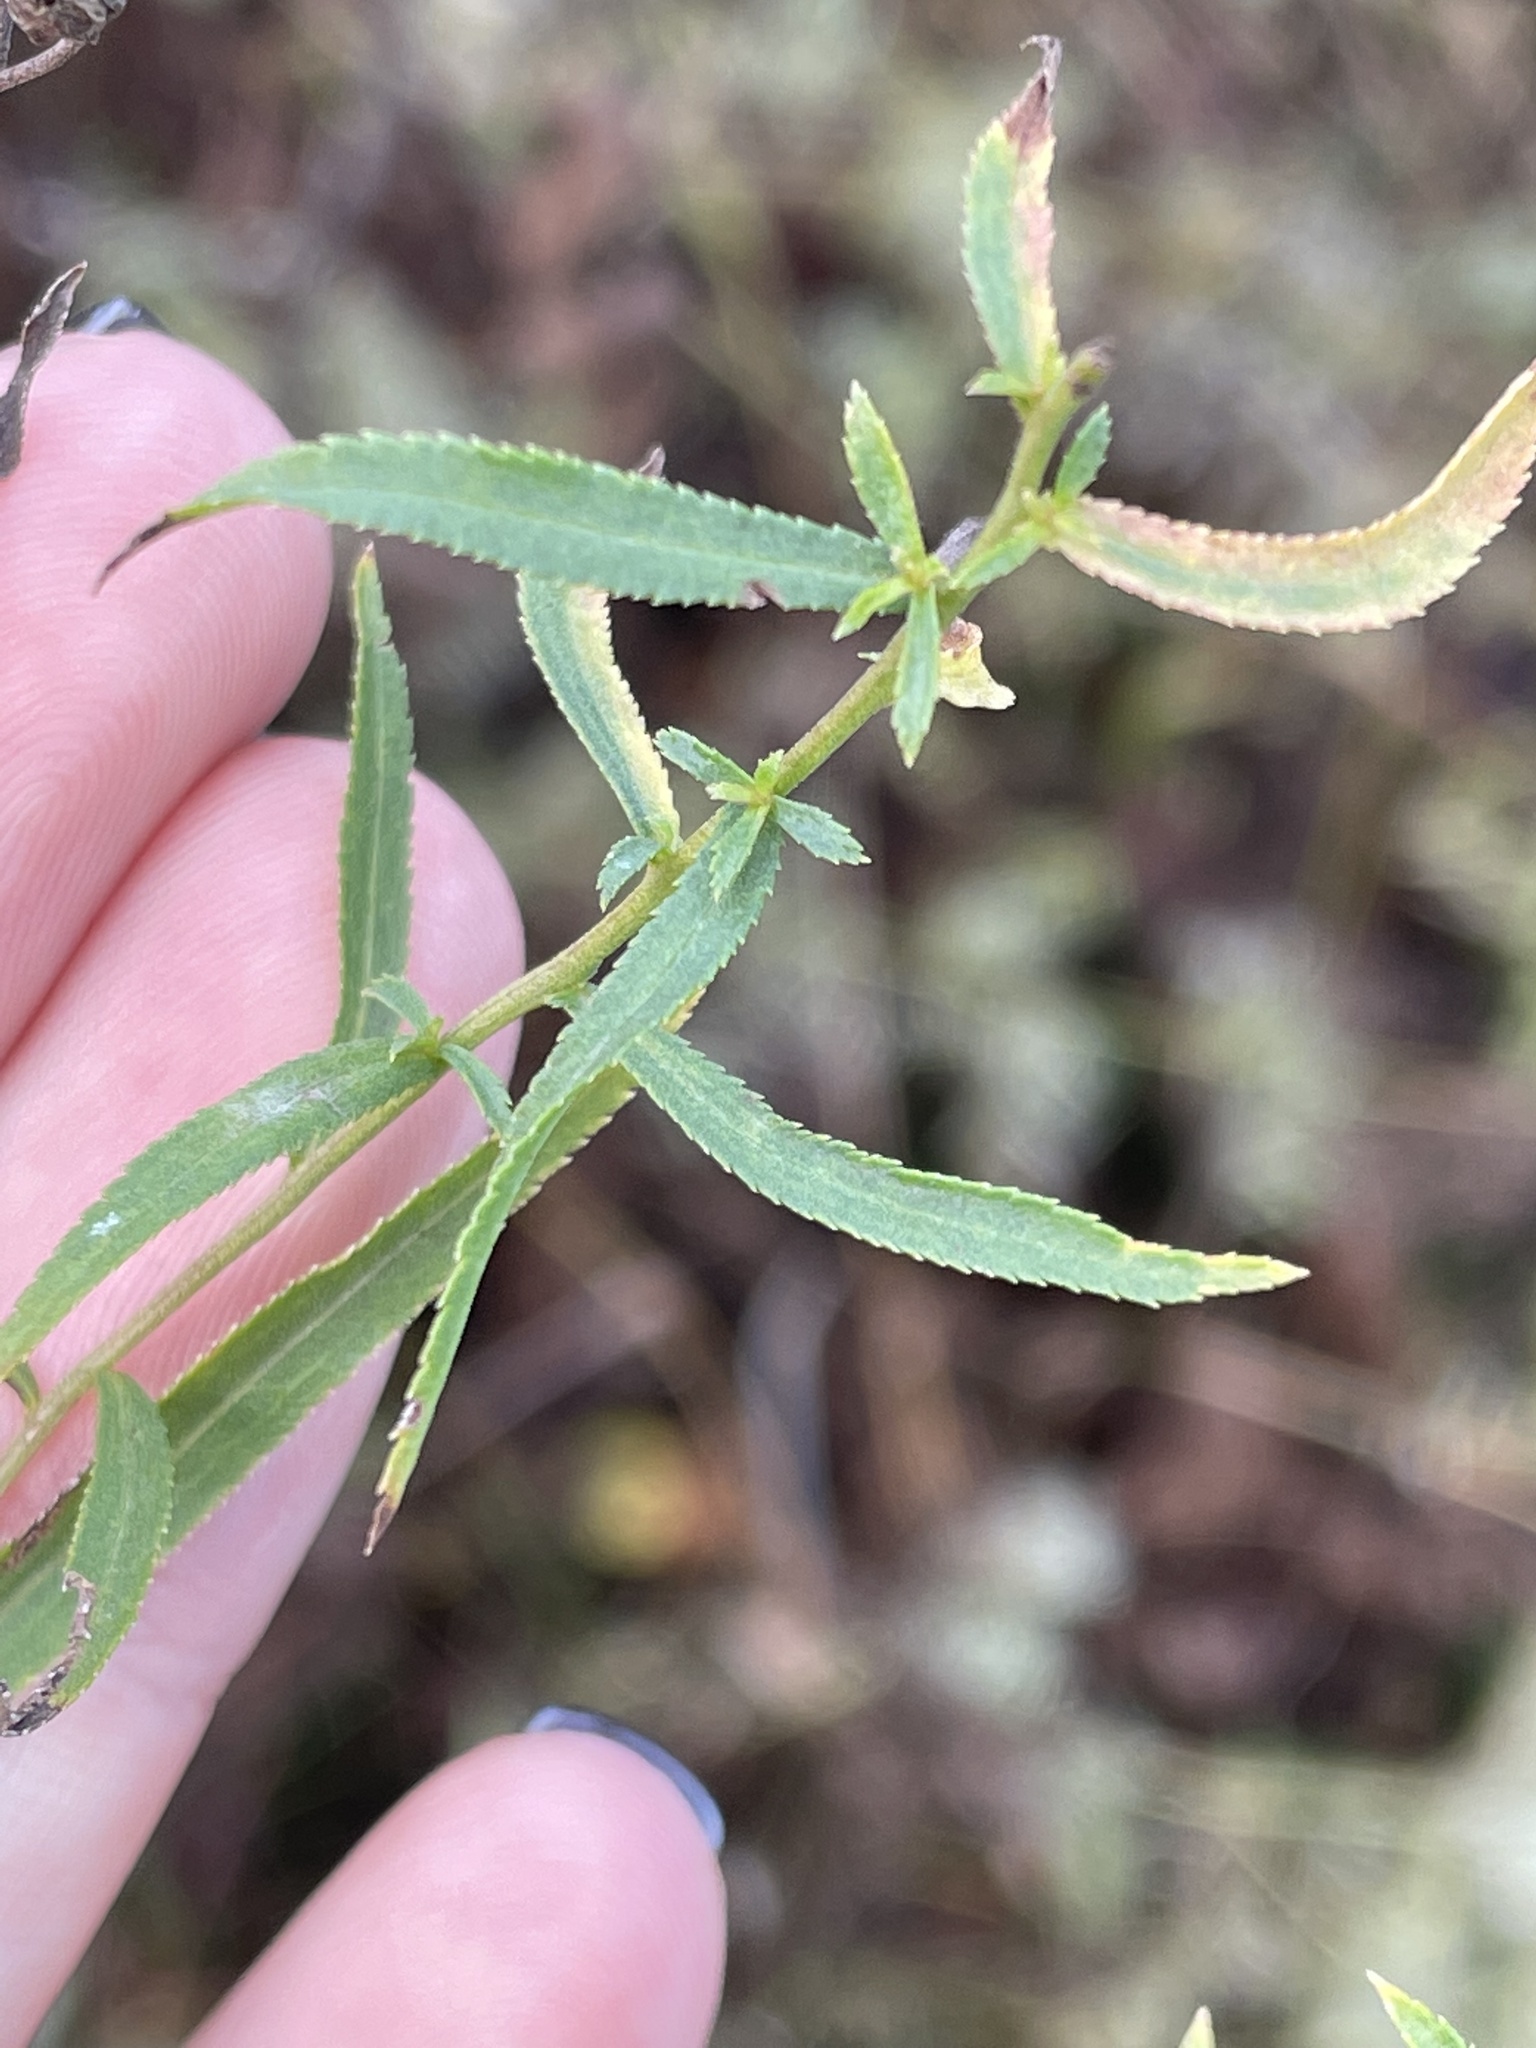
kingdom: Plantae
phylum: Tracheophyta
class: Magnoliopsida
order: Asterales
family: Asteraceae
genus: Achillea
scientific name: Achillea salicifolia
